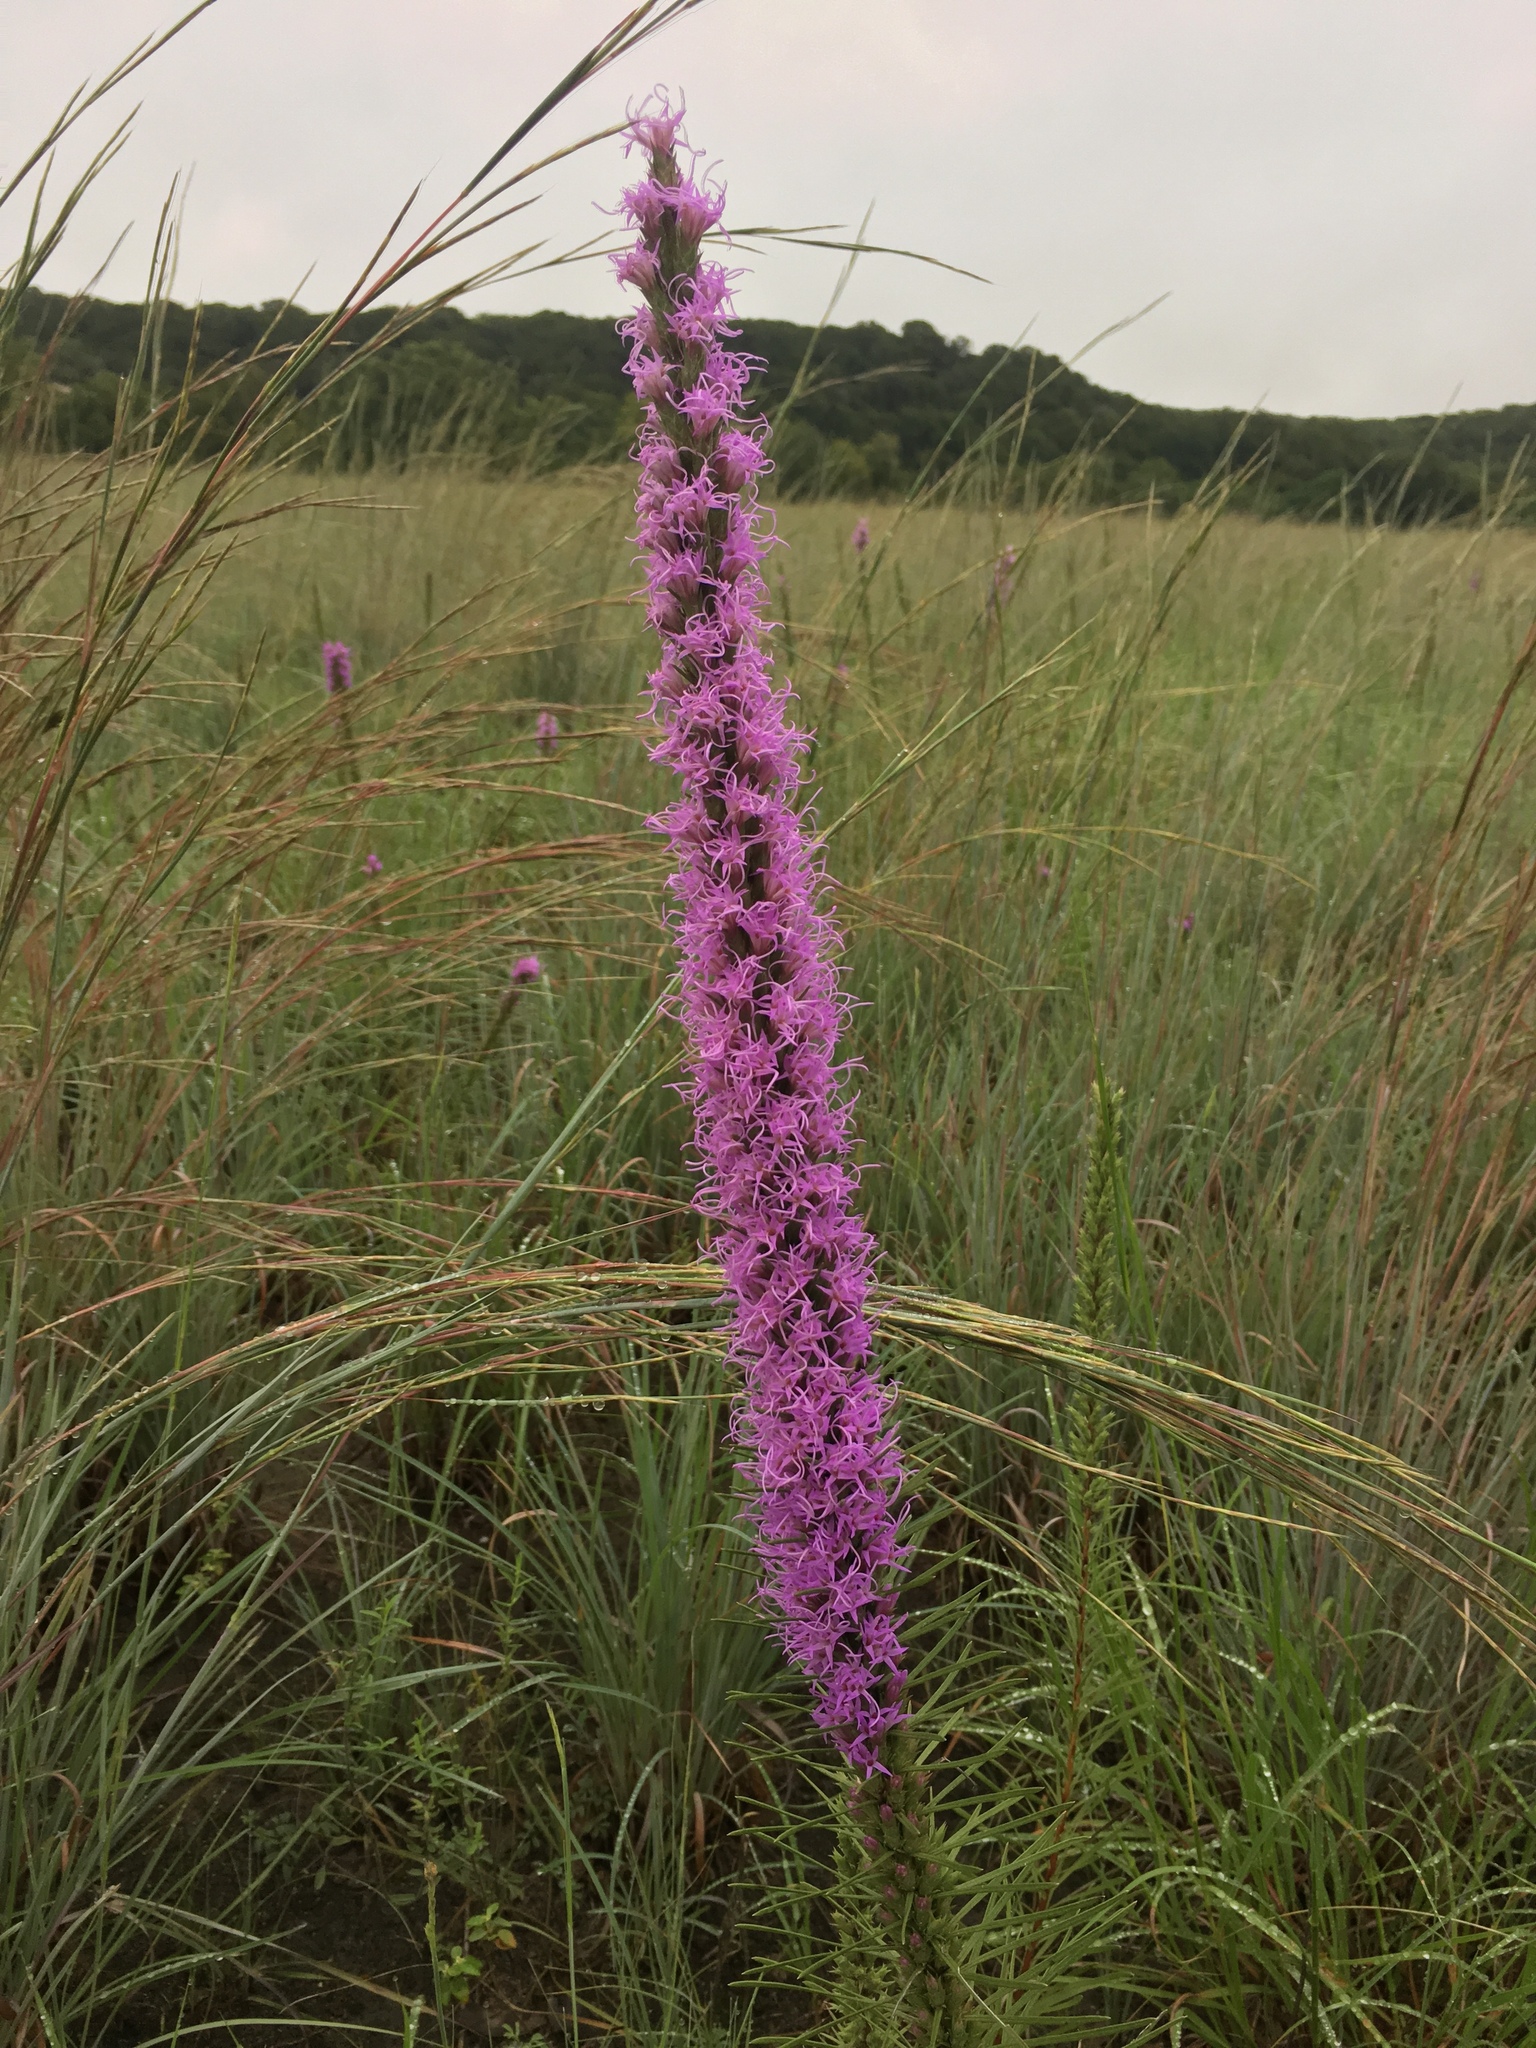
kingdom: Plantae
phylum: Tracheophyta
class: Magnoliopsida
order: Asterales
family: Asteraceae
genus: Liatris
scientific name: Liatris punctata
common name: Dotted gayfeather
